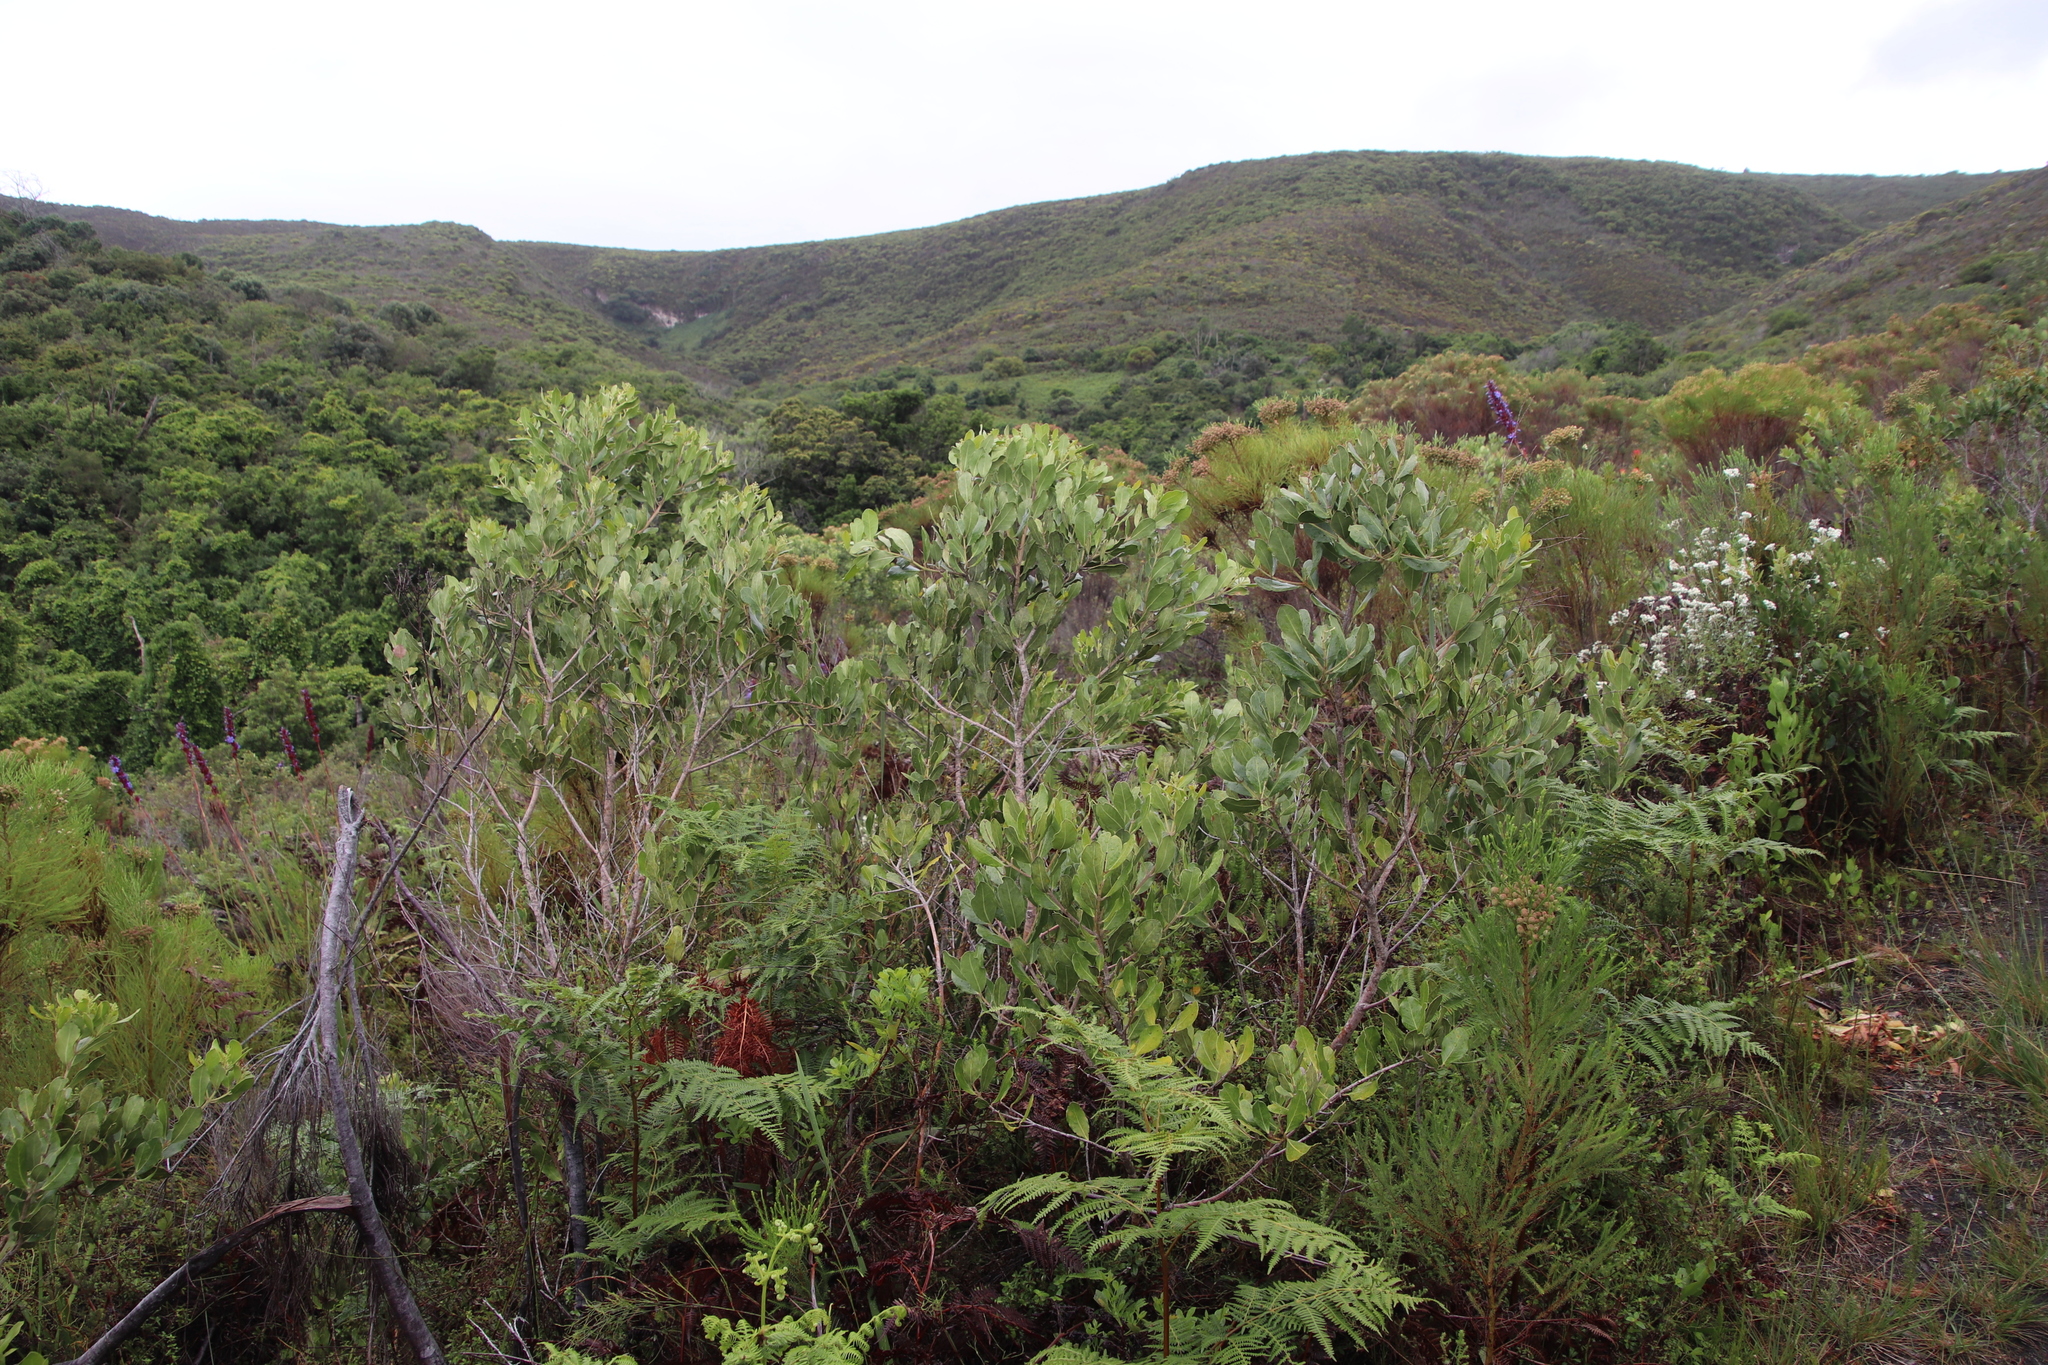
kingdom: Plantae
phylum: Tracheophyta
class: Magnoliopsida
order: Lamiales
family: Oleaceae
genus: Olea
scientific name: Olea capensis
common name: Black ironwood
